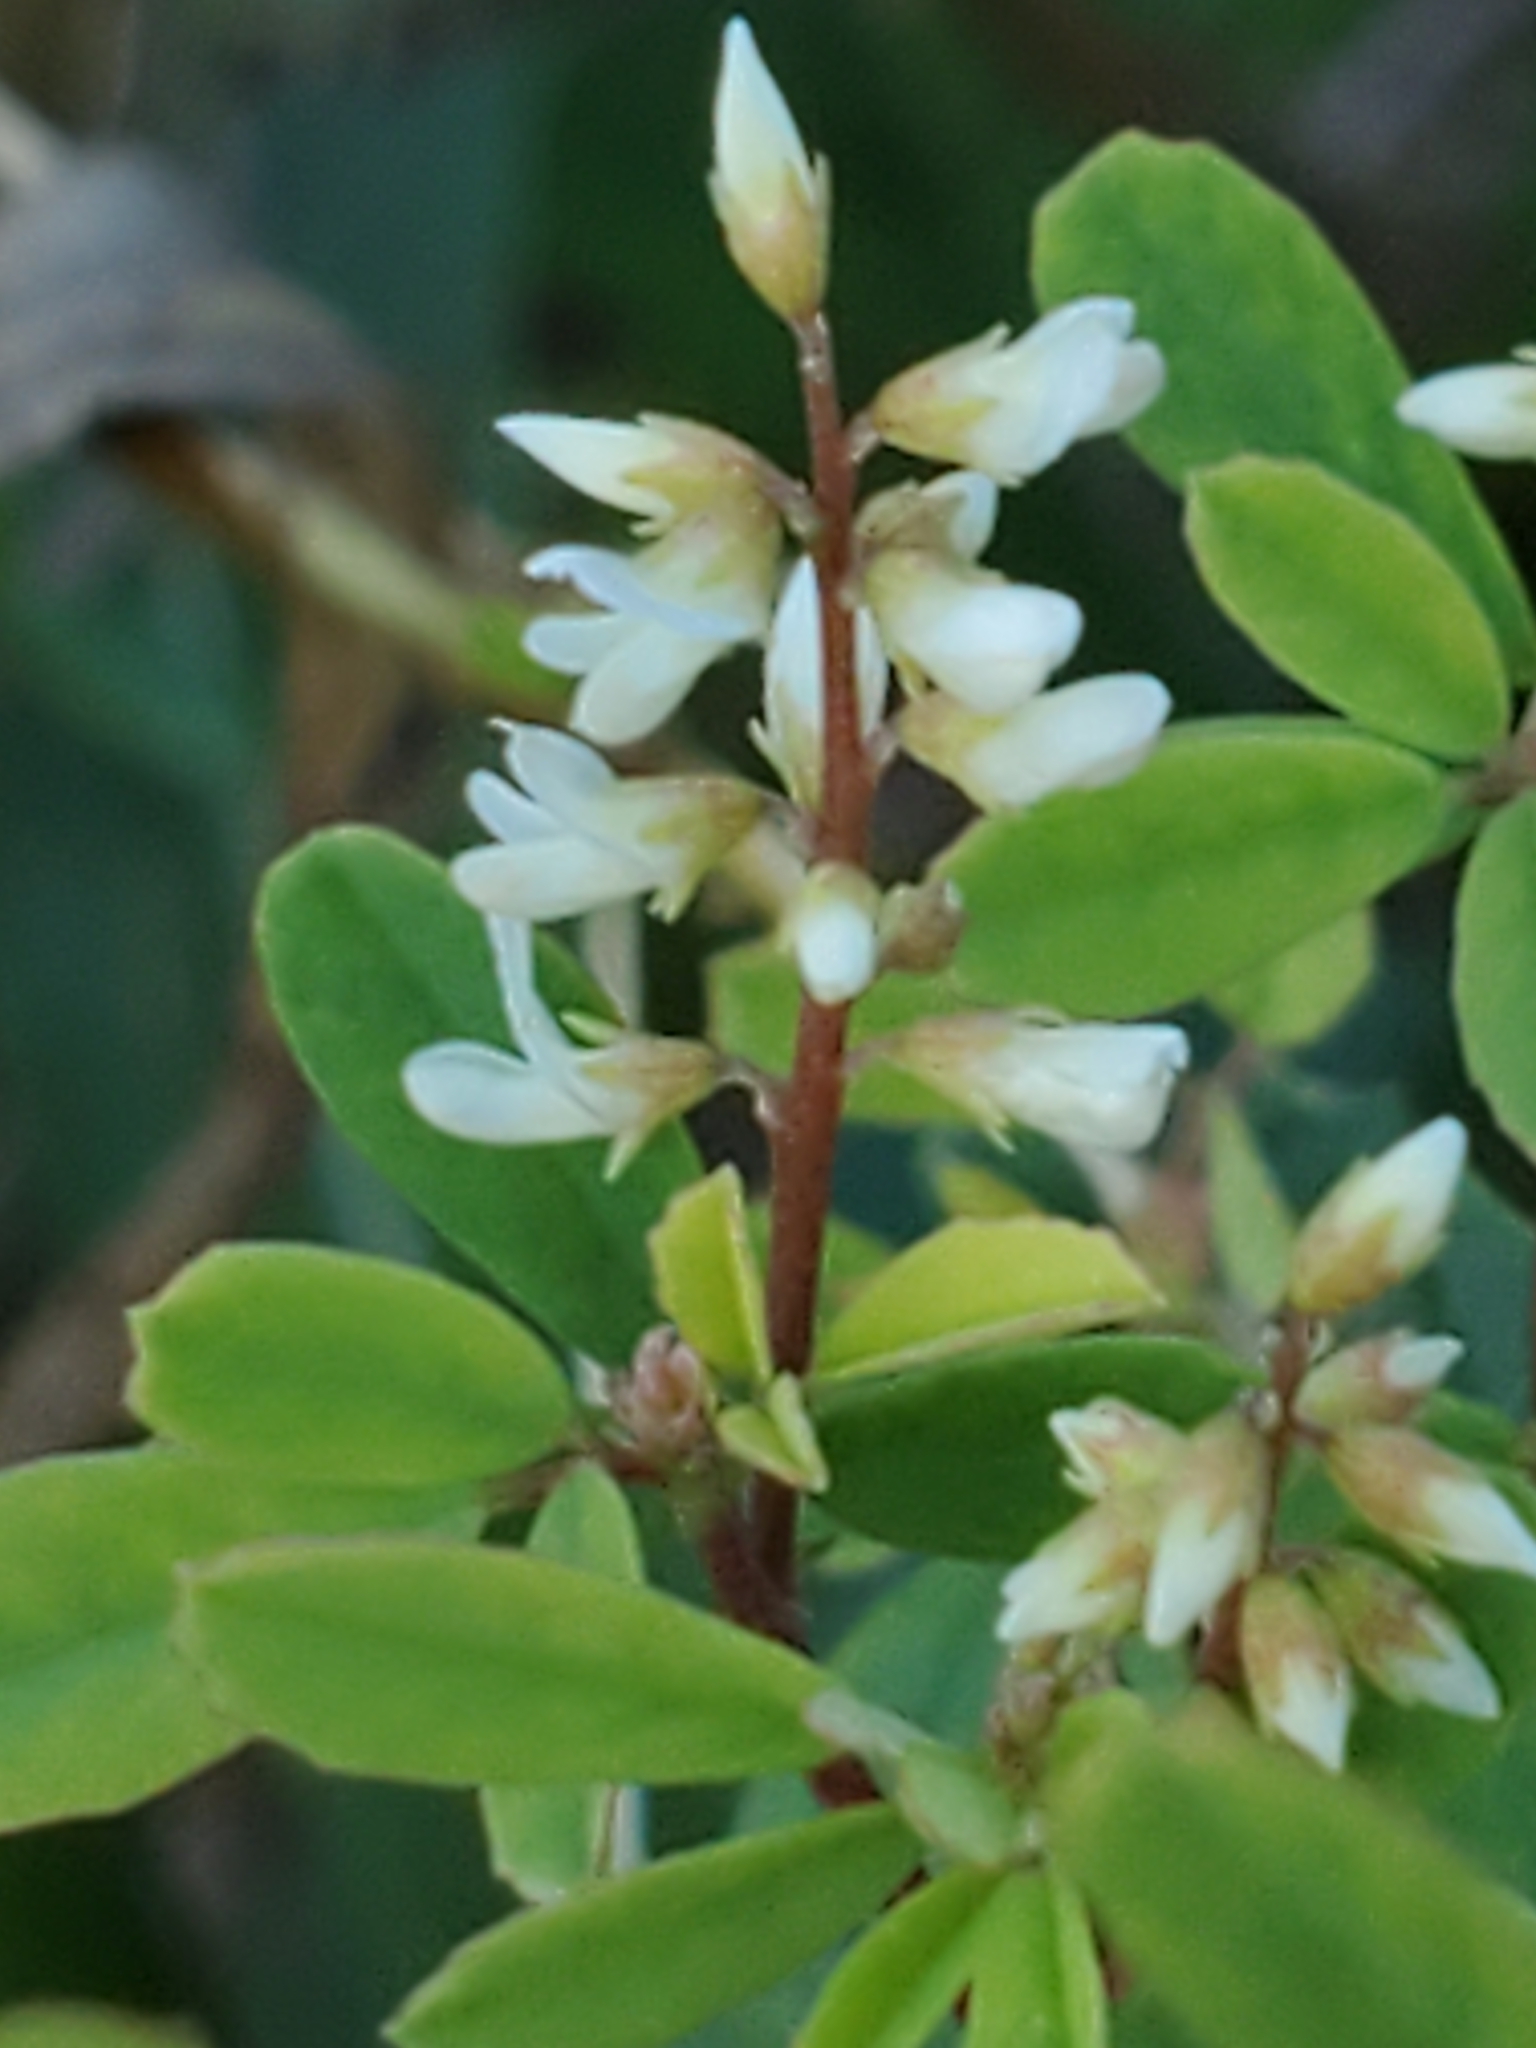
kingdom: Plantae
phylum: Tracheophyta
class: Magnoliopsida
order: Fabales
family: Fabaceae
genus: Melilotus
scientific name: Melilotus albus
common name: White melilot
